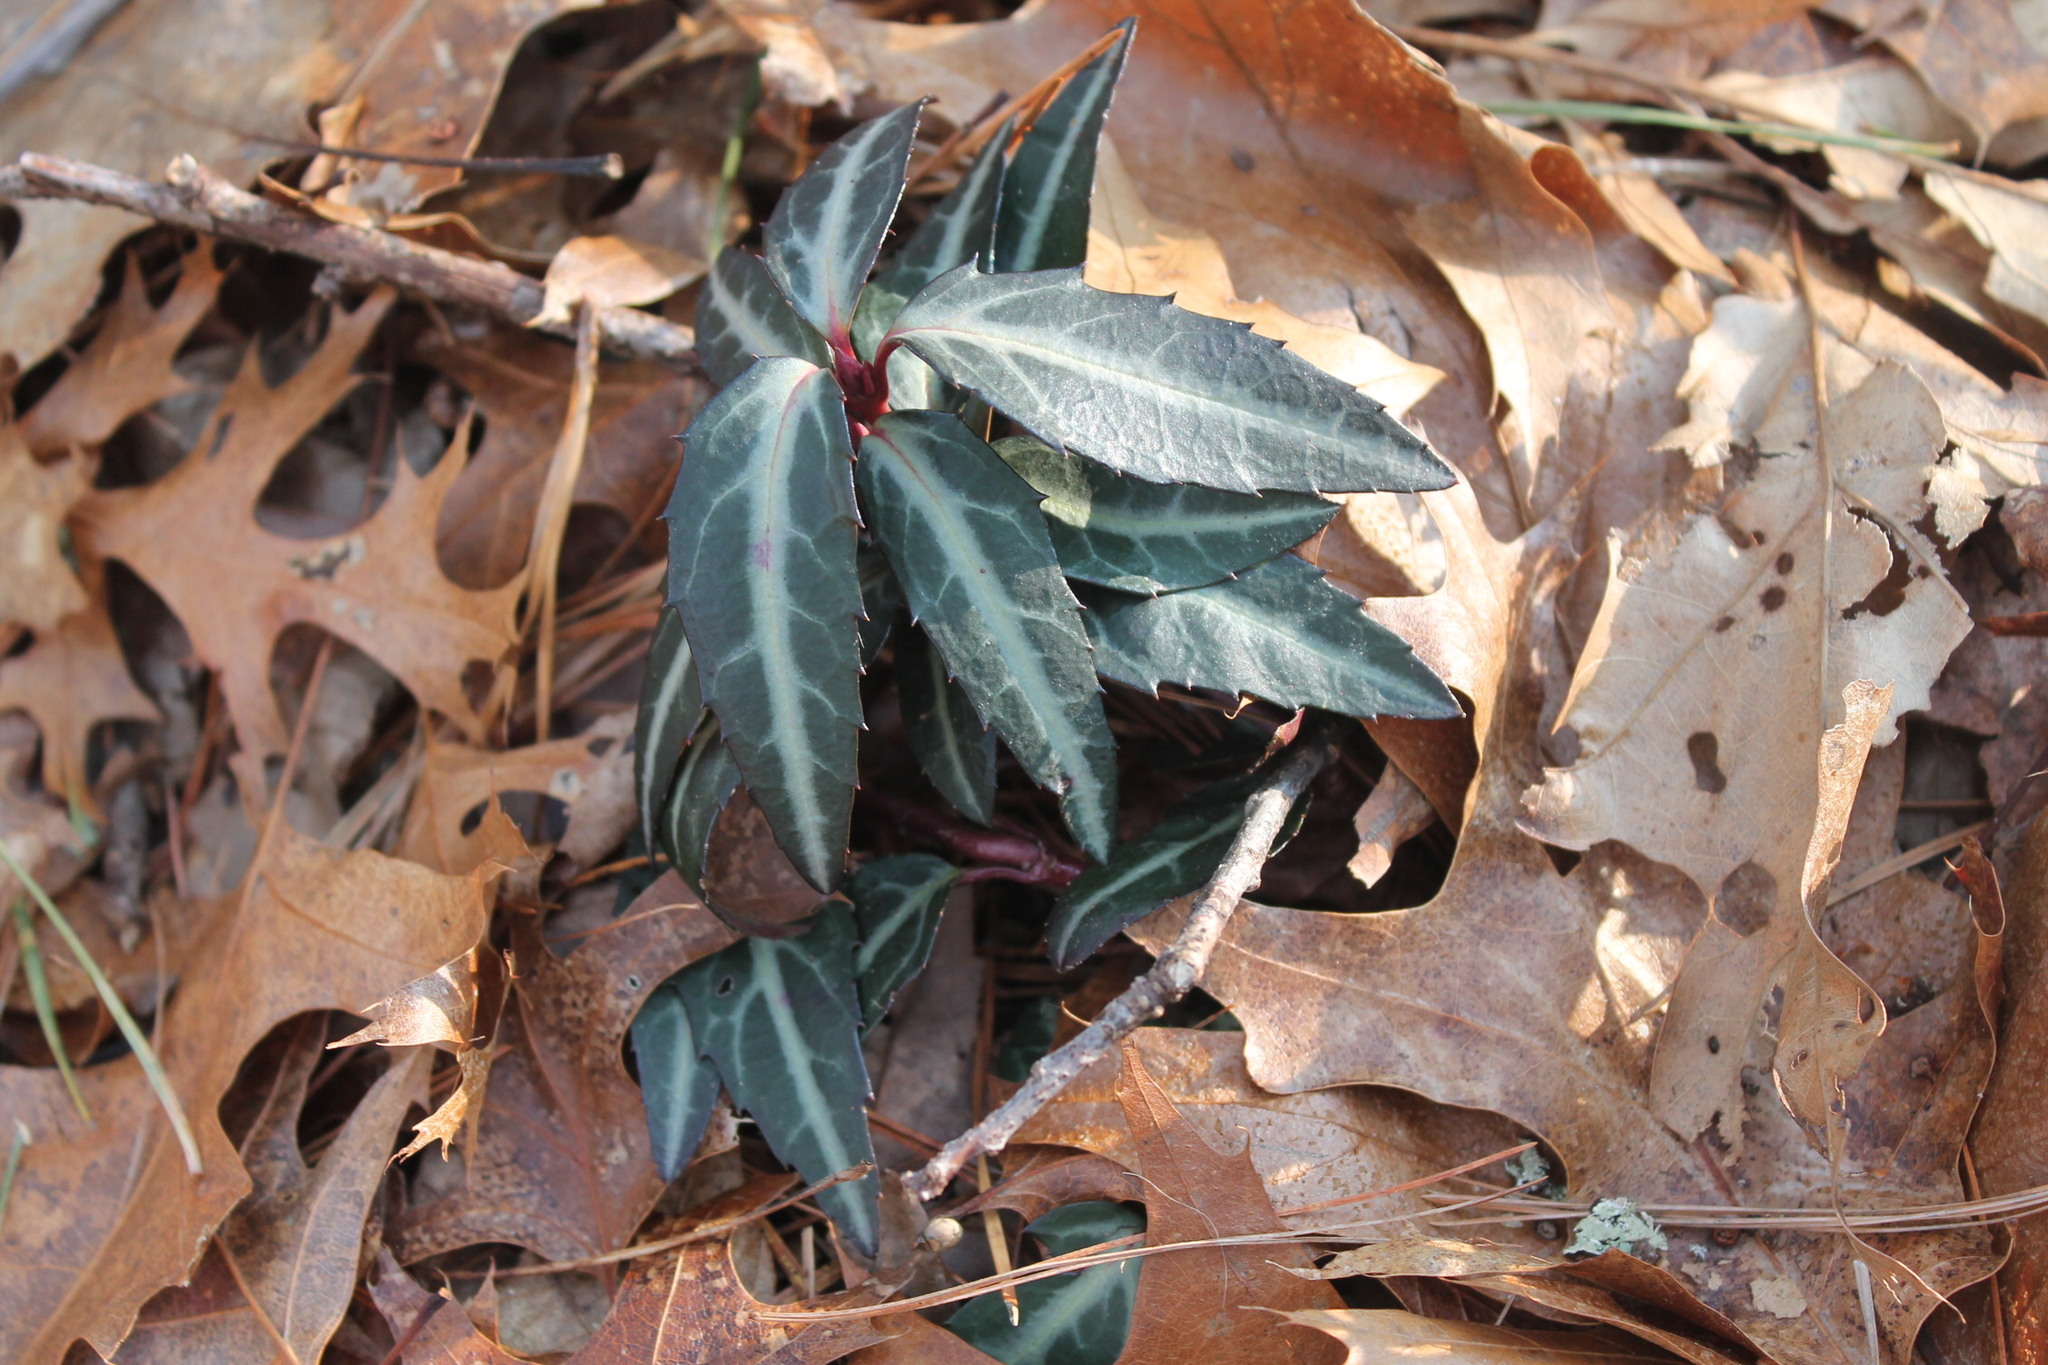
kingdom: Plantae
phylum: Tracheophyta
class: Magnoliopsida
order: Ericales
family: Ericaceae
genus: Chimaphila
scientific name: Chimaphila maculata
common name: Spotted pipsissewa
